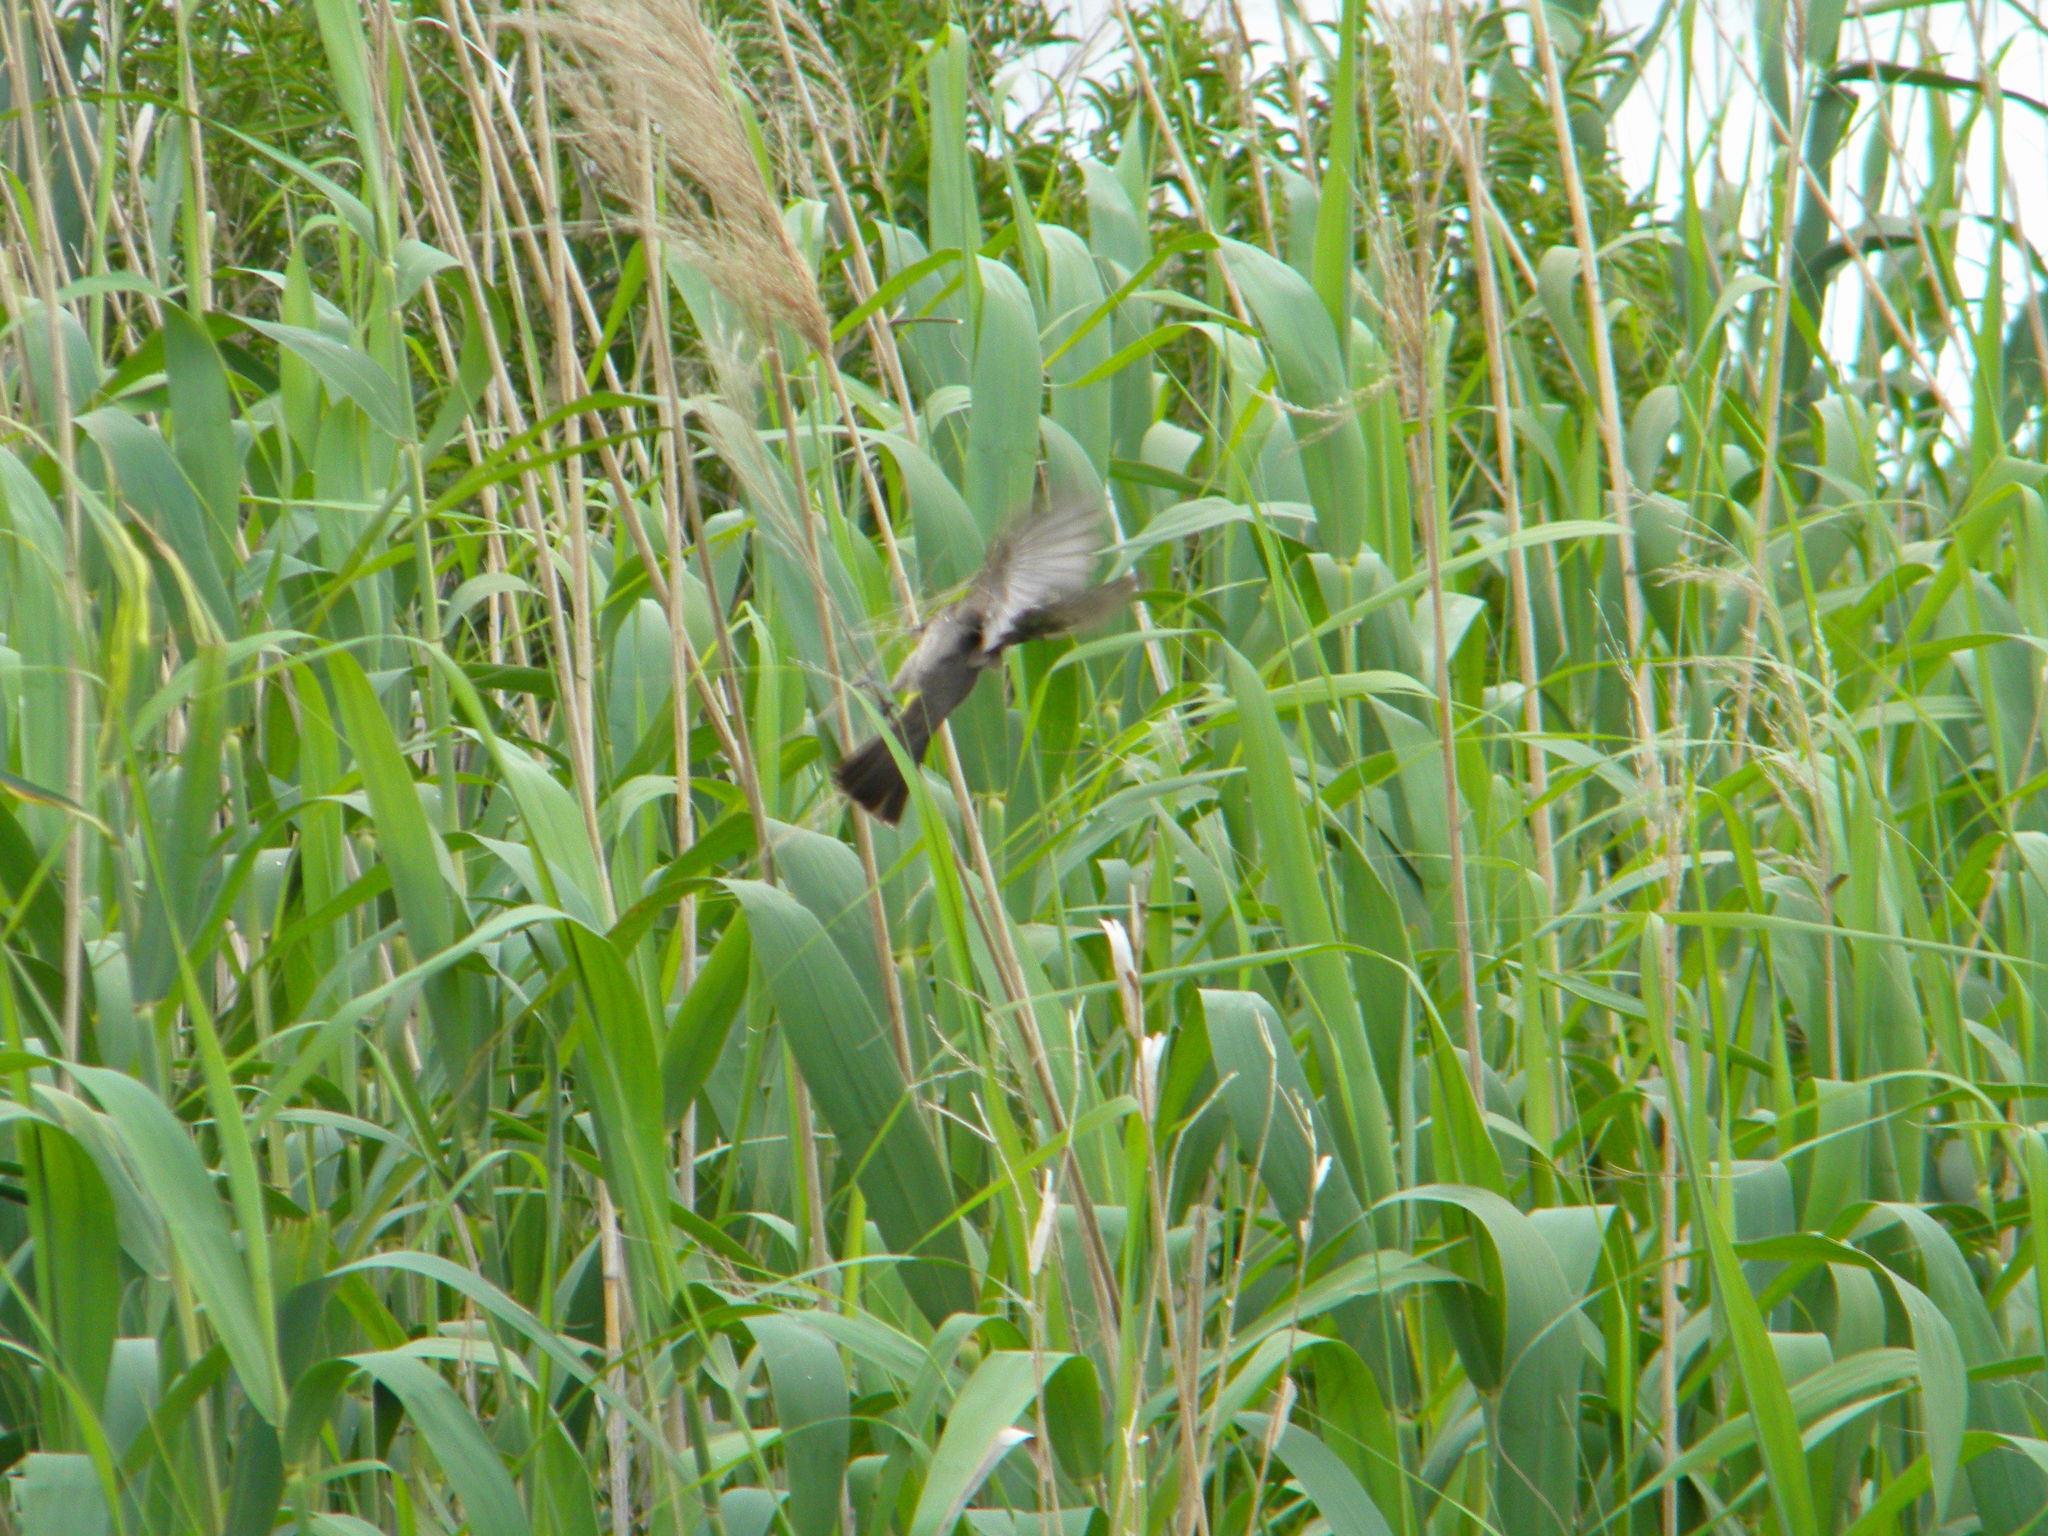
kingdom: Animalia
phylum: Chordata
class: Aves
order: Passeriformes
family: Pycnonotidae
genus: Pycnonotus
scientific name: Pycnonotus capensis
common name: Cape bulbul
